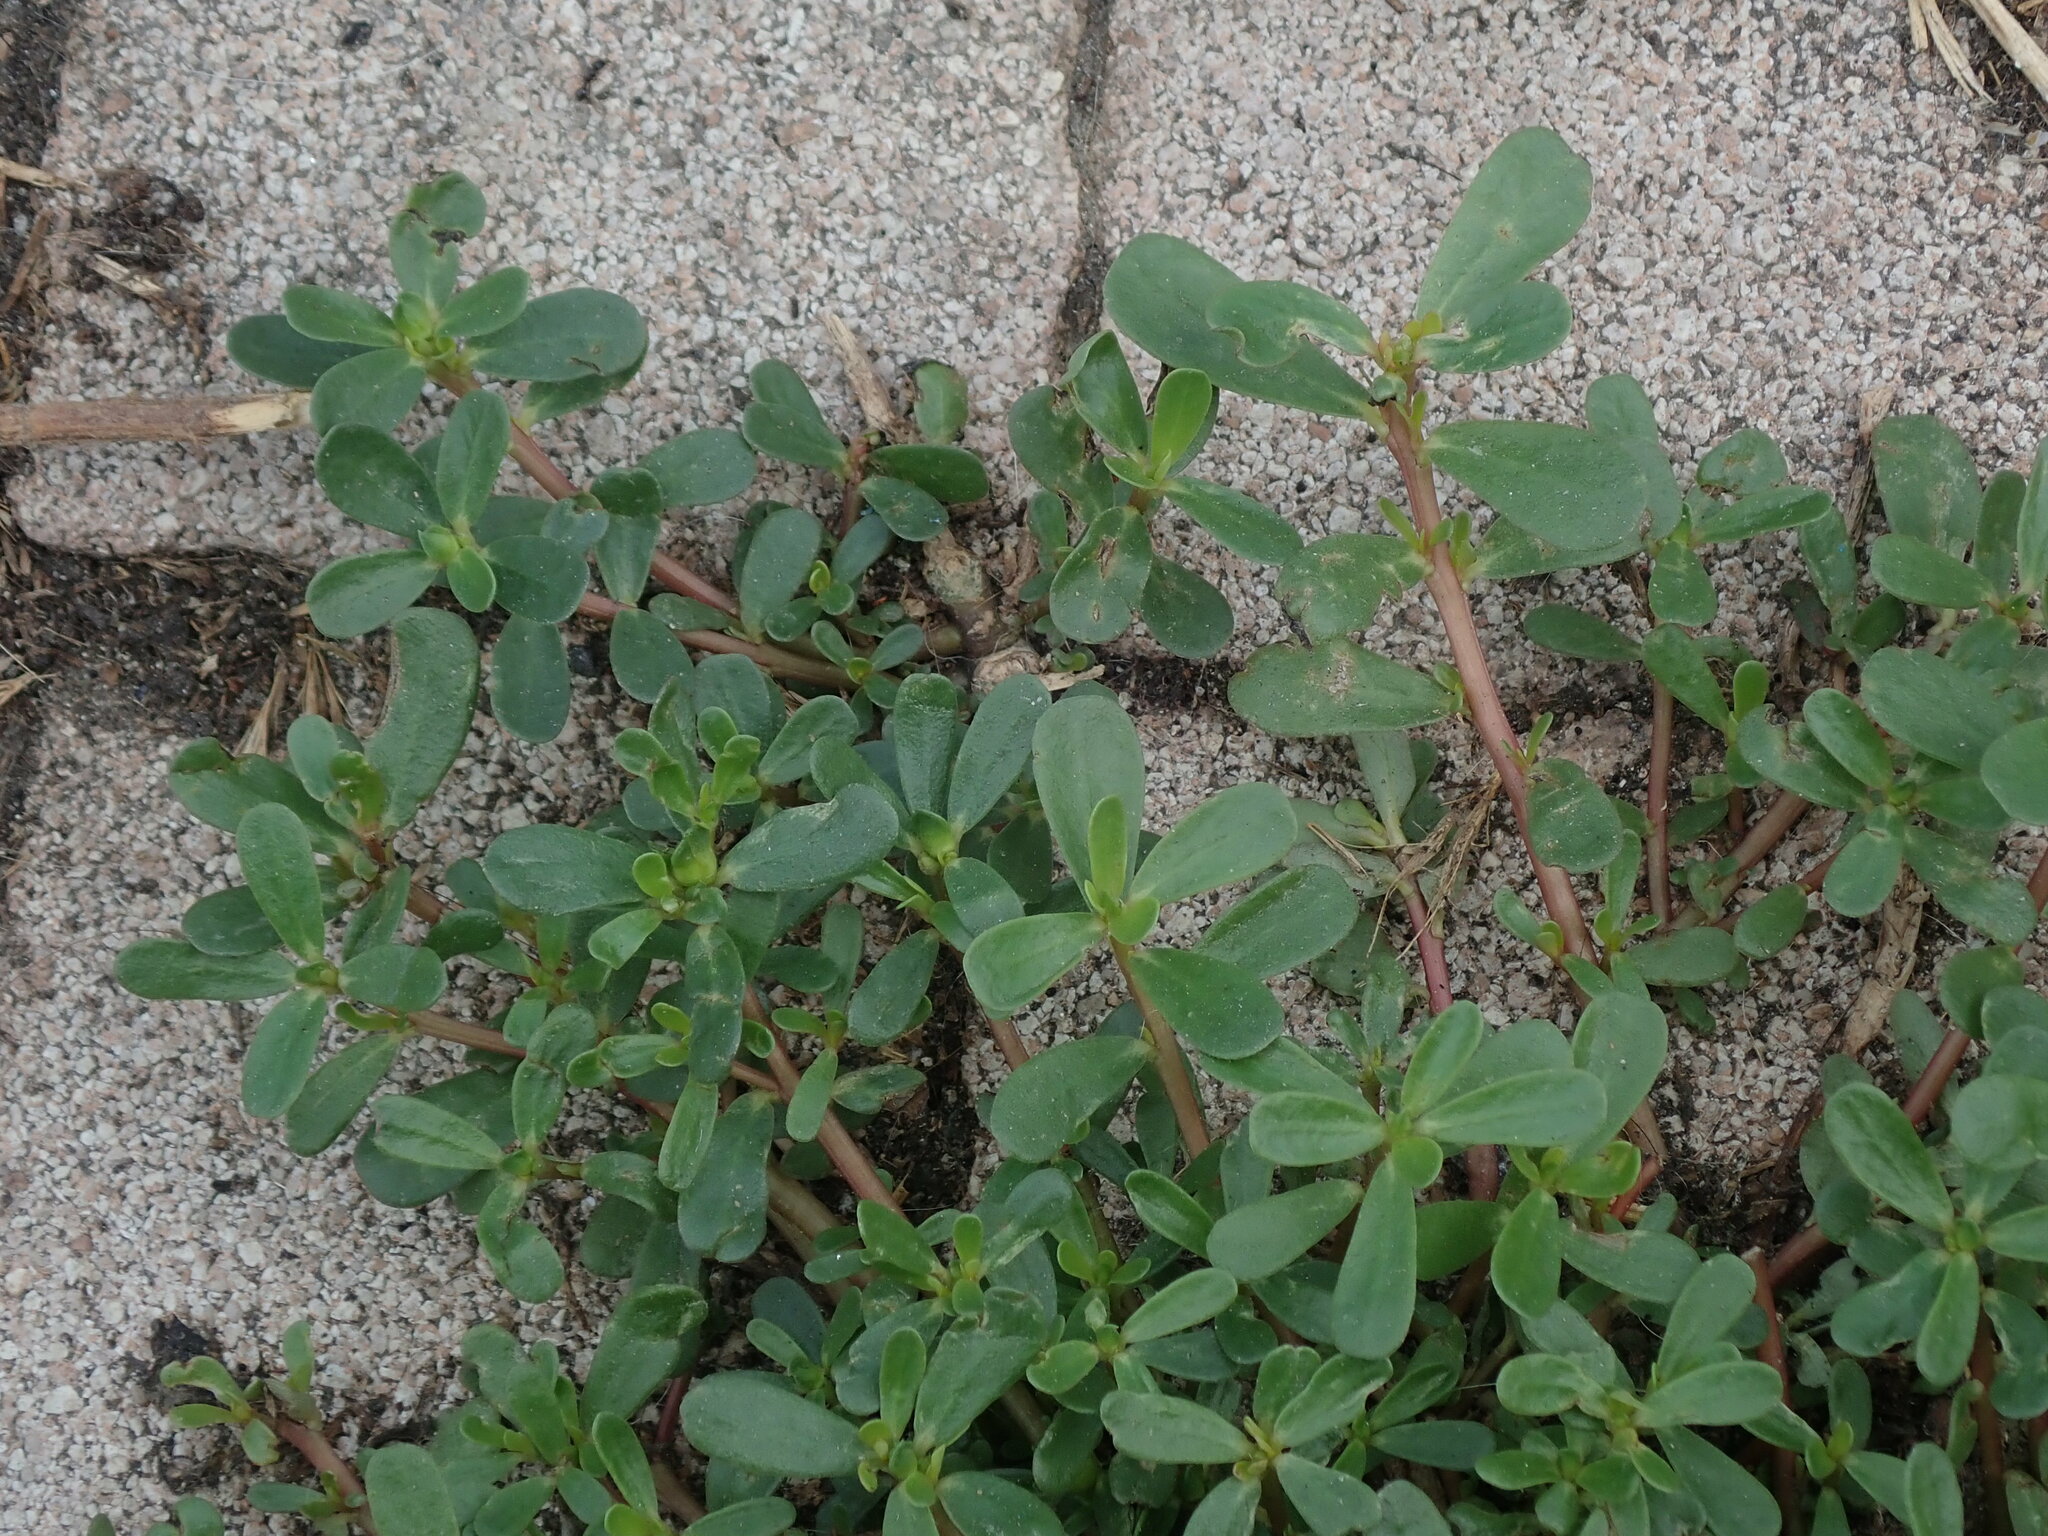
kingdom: Plantae
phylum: Tracheophyta
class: Magnoliopsida
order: Caryophyllales
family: Portulacaceae
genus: Portulaca
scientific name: Portulaca oleracea
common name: Common purslane
